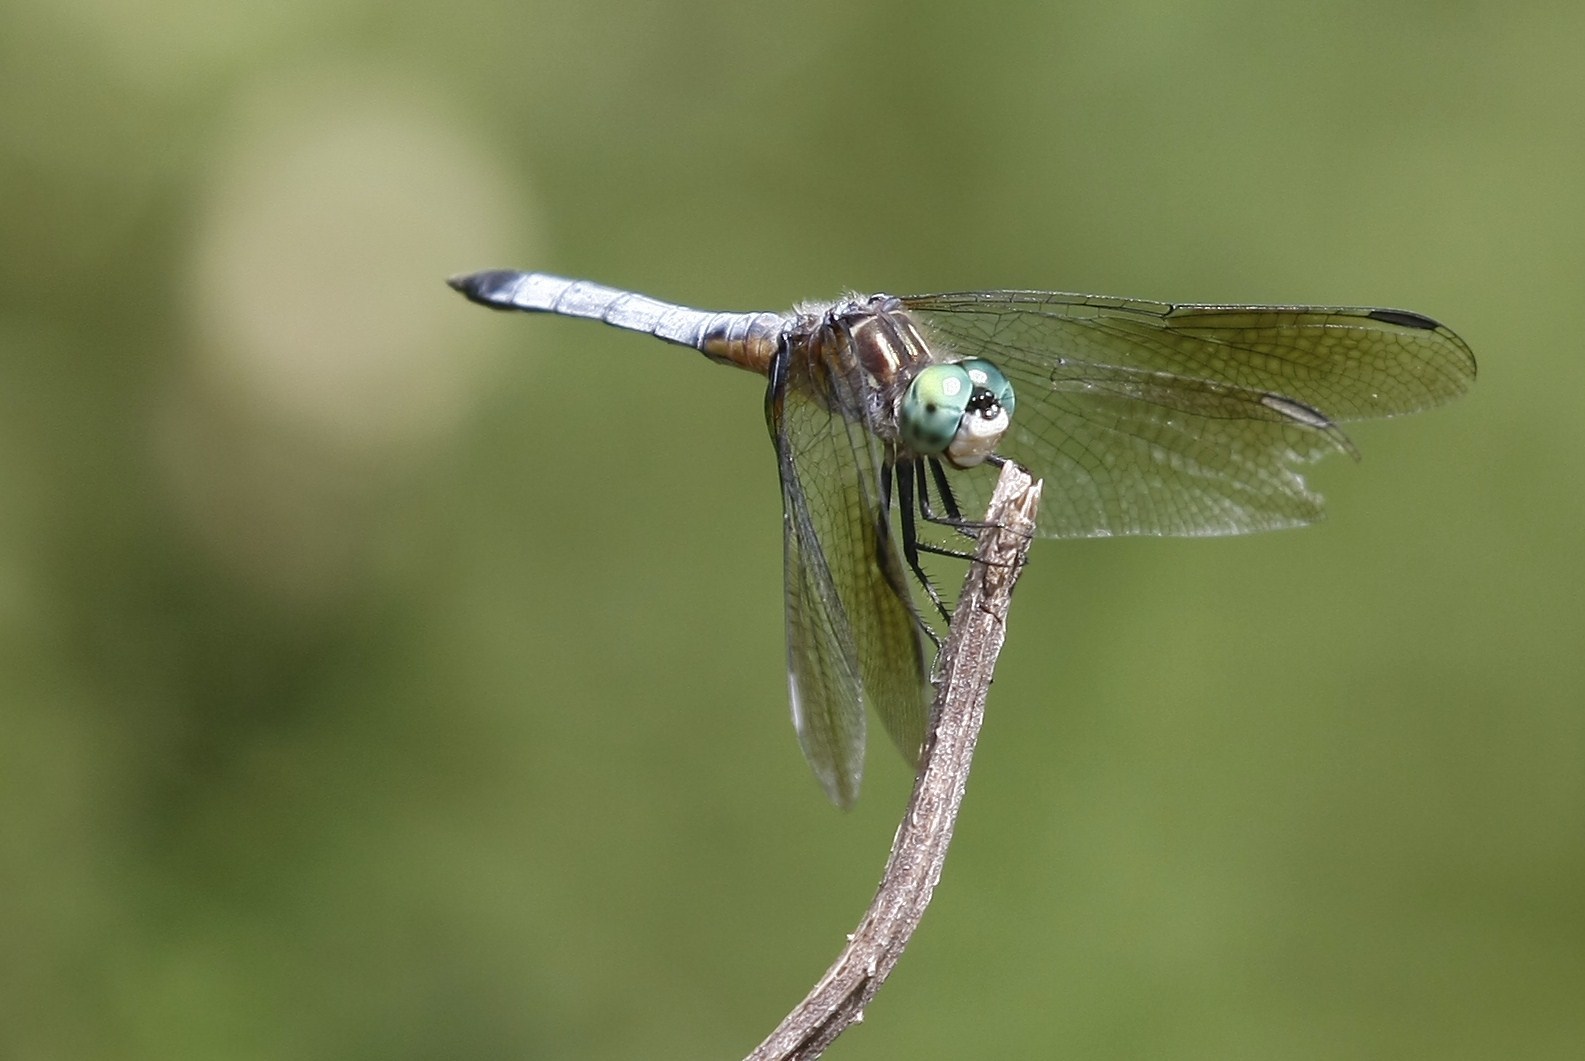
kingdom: Animalia
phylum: Arthropoda
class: Insecta
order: Odonata
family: Libellulidae
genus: Pachydiplax
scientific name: Pachydiplax longipennis
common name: Blue dasher
